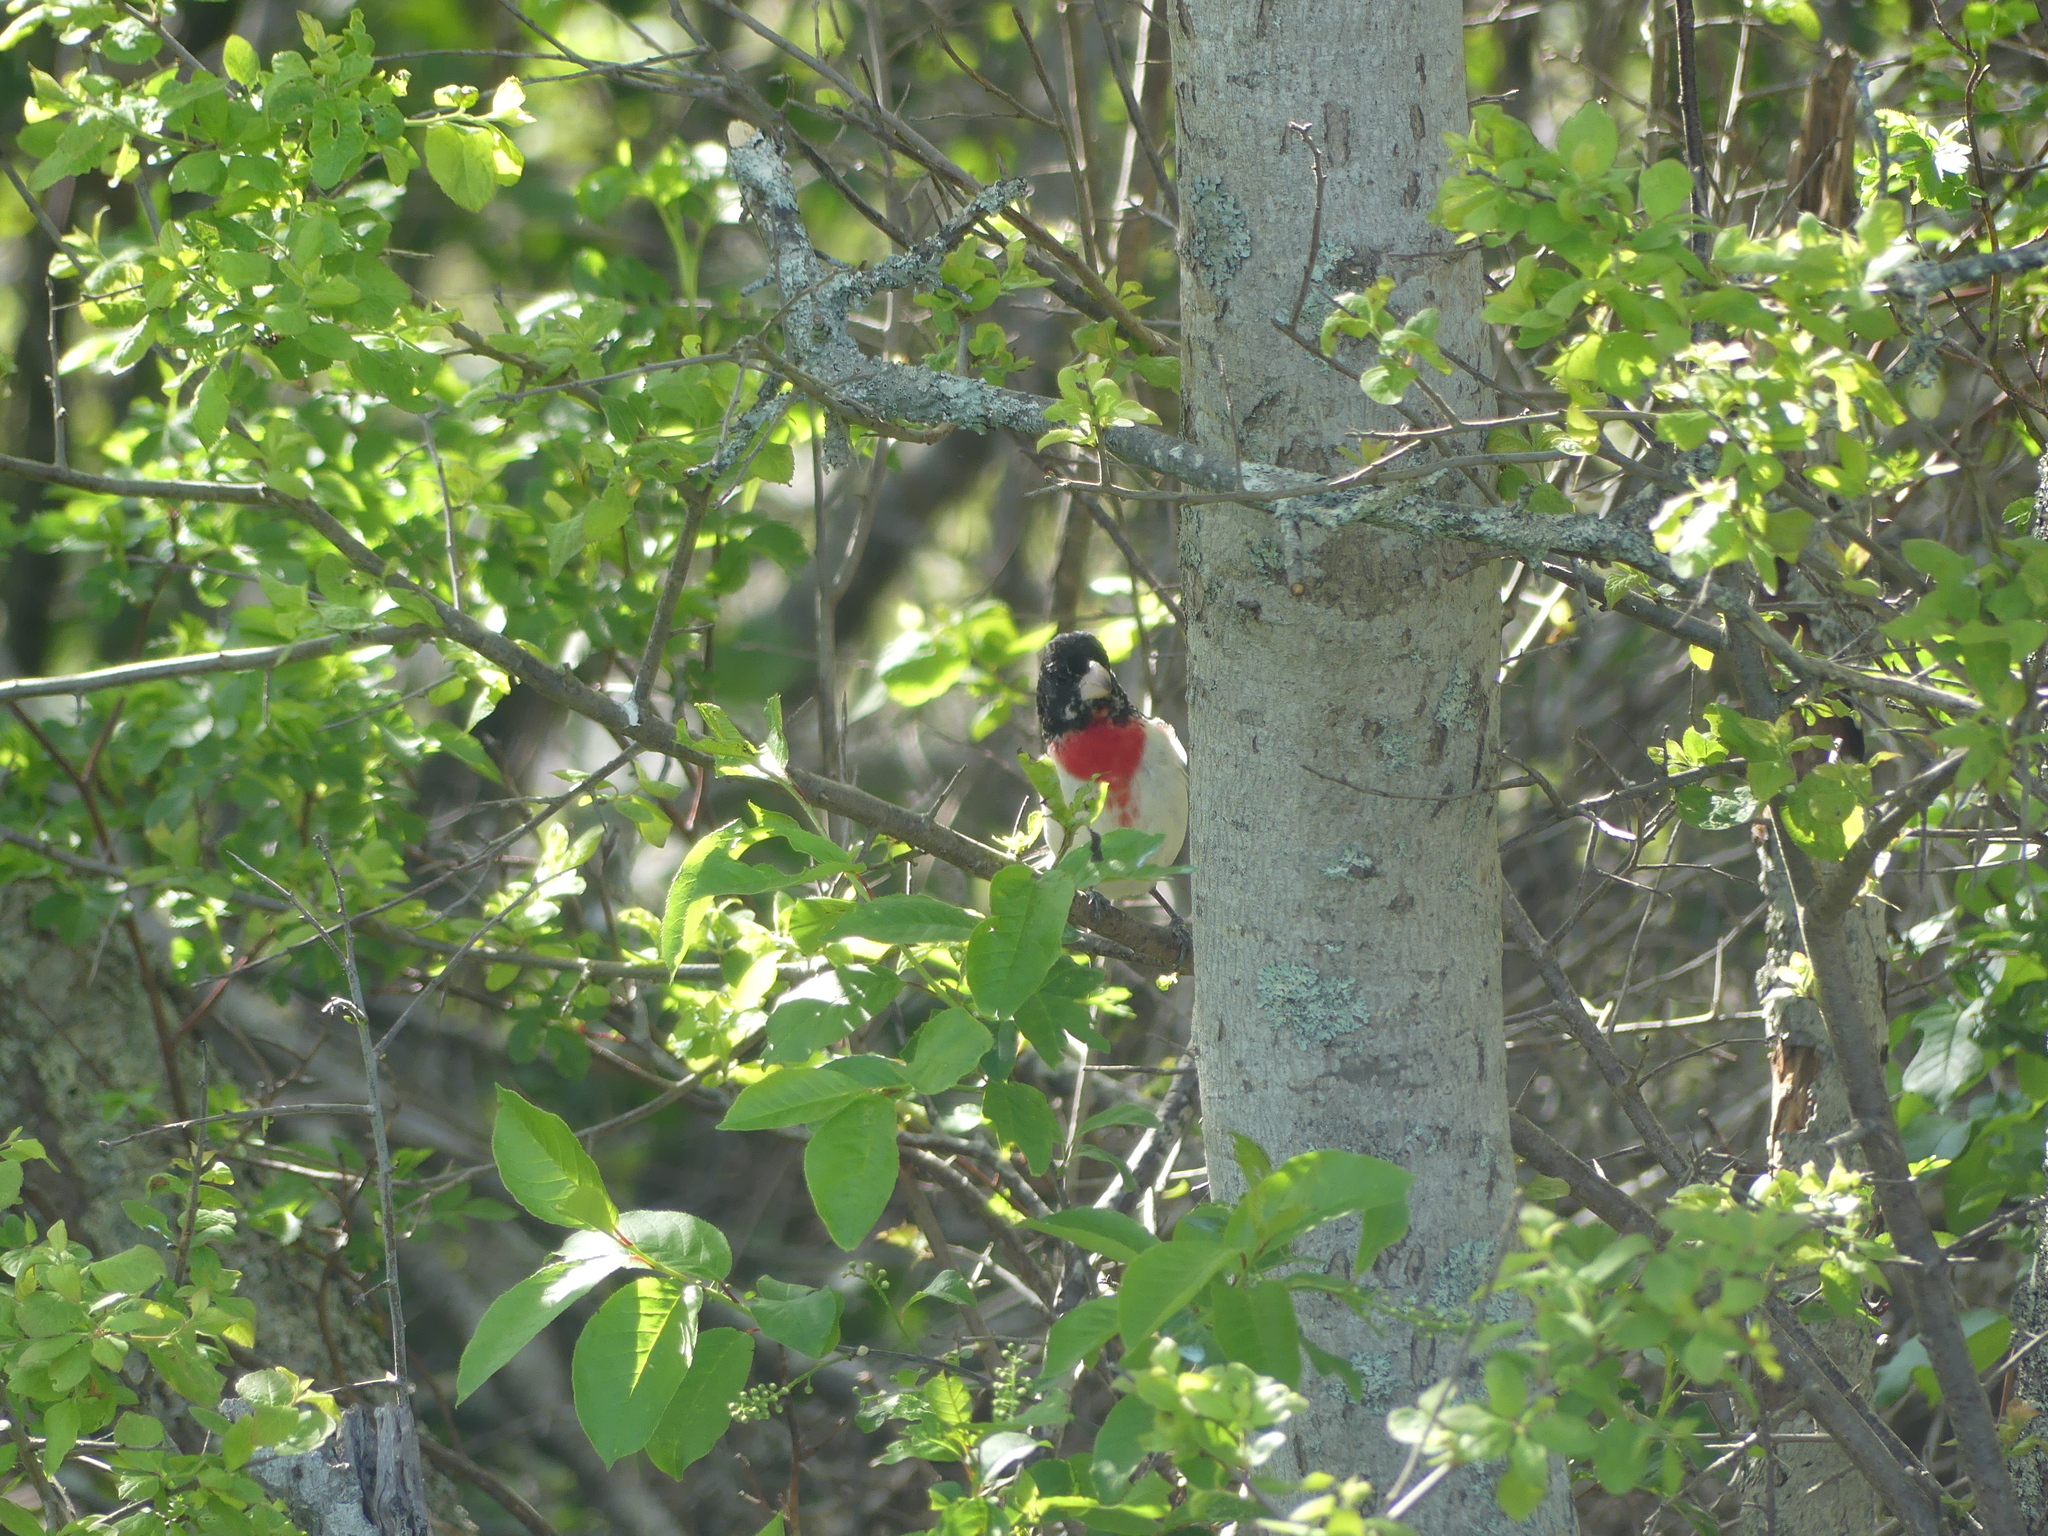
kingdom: Animalia
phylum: Chordata
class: Aves
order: Passeriformes
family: Cardinalidae
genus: Pheucticus
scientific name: Pheucticus ludovicianus
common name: Rose-breasted grosbeak
